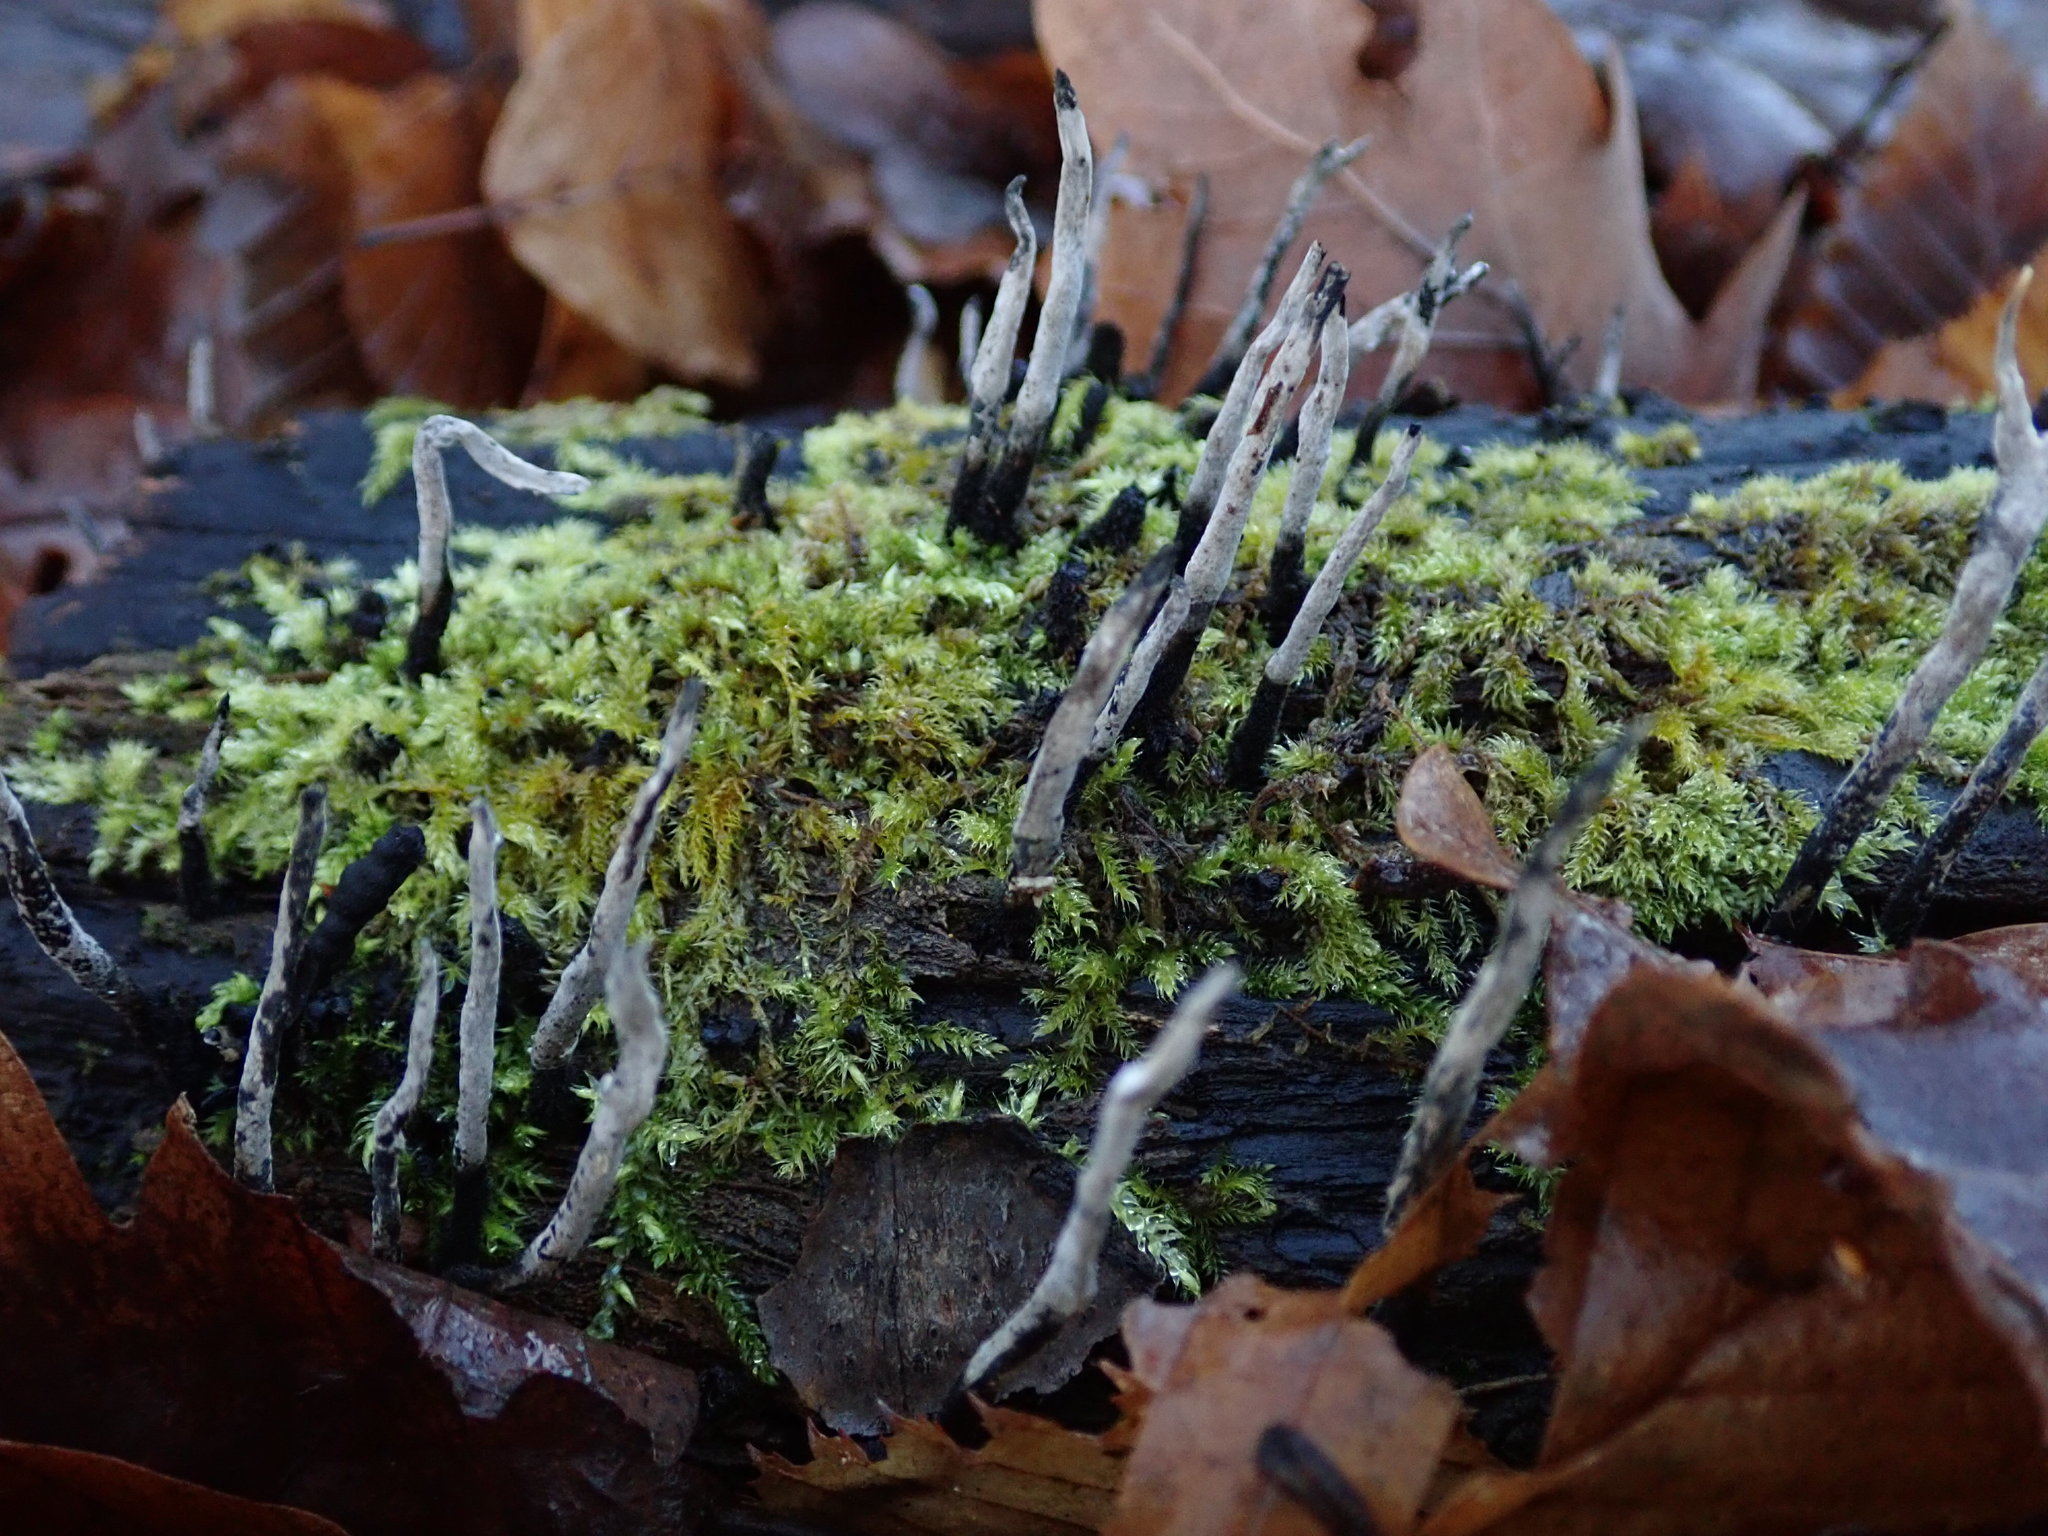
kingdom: Fungi
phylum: Ascomycota
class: Sordariomycetes
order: Xylariales
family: Xylariaceae
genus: Xylaria
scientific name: Xylaria hypoxylon
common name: Candle-snuff fungus
